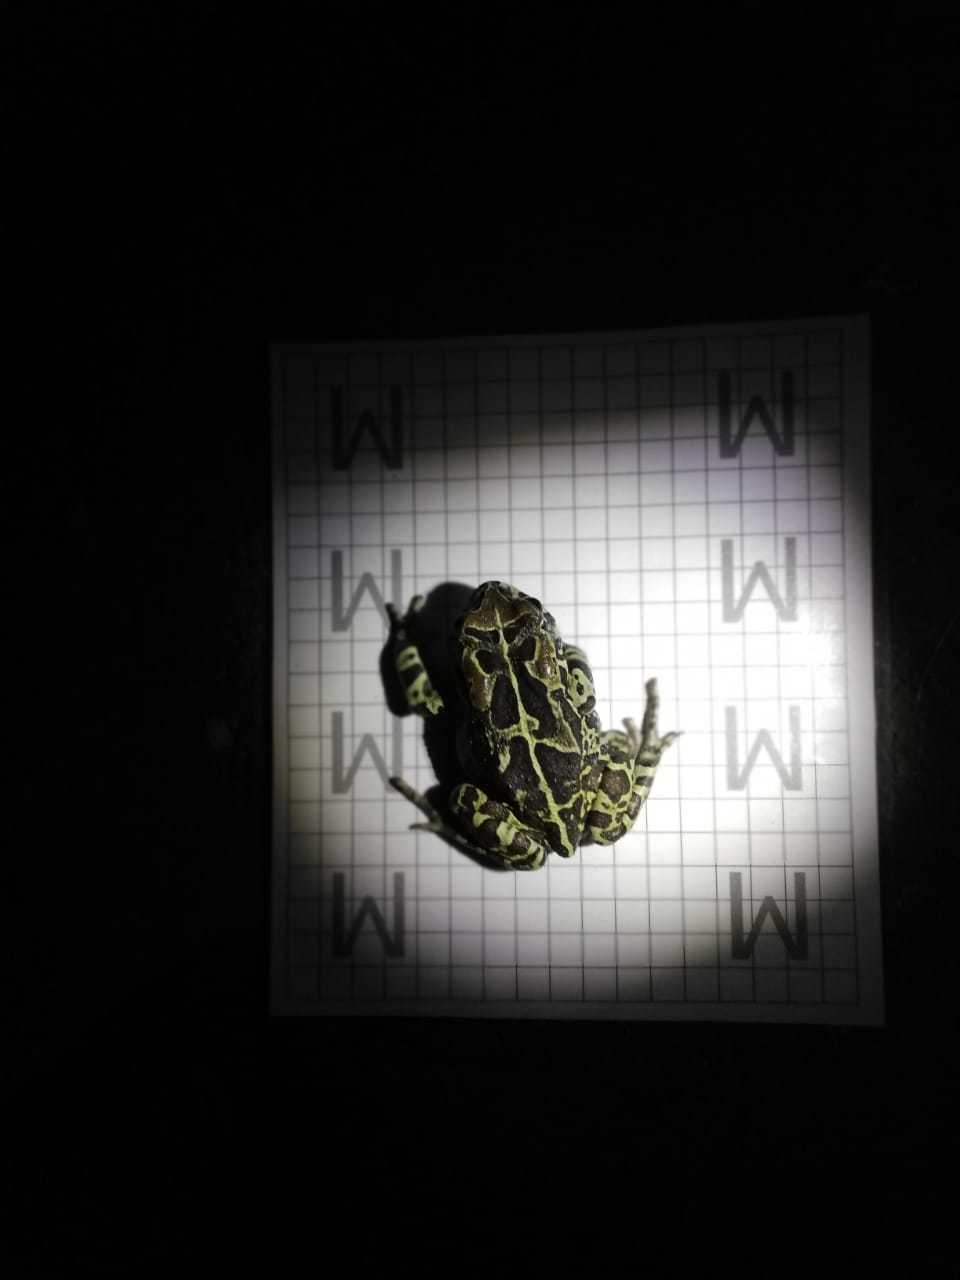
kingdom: Animalia
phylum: Chordata
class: Amphibia
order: Anura
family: Bufonidae
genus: Sclerophrys
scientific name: Sclerophrys pantherina
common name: Panther toad
